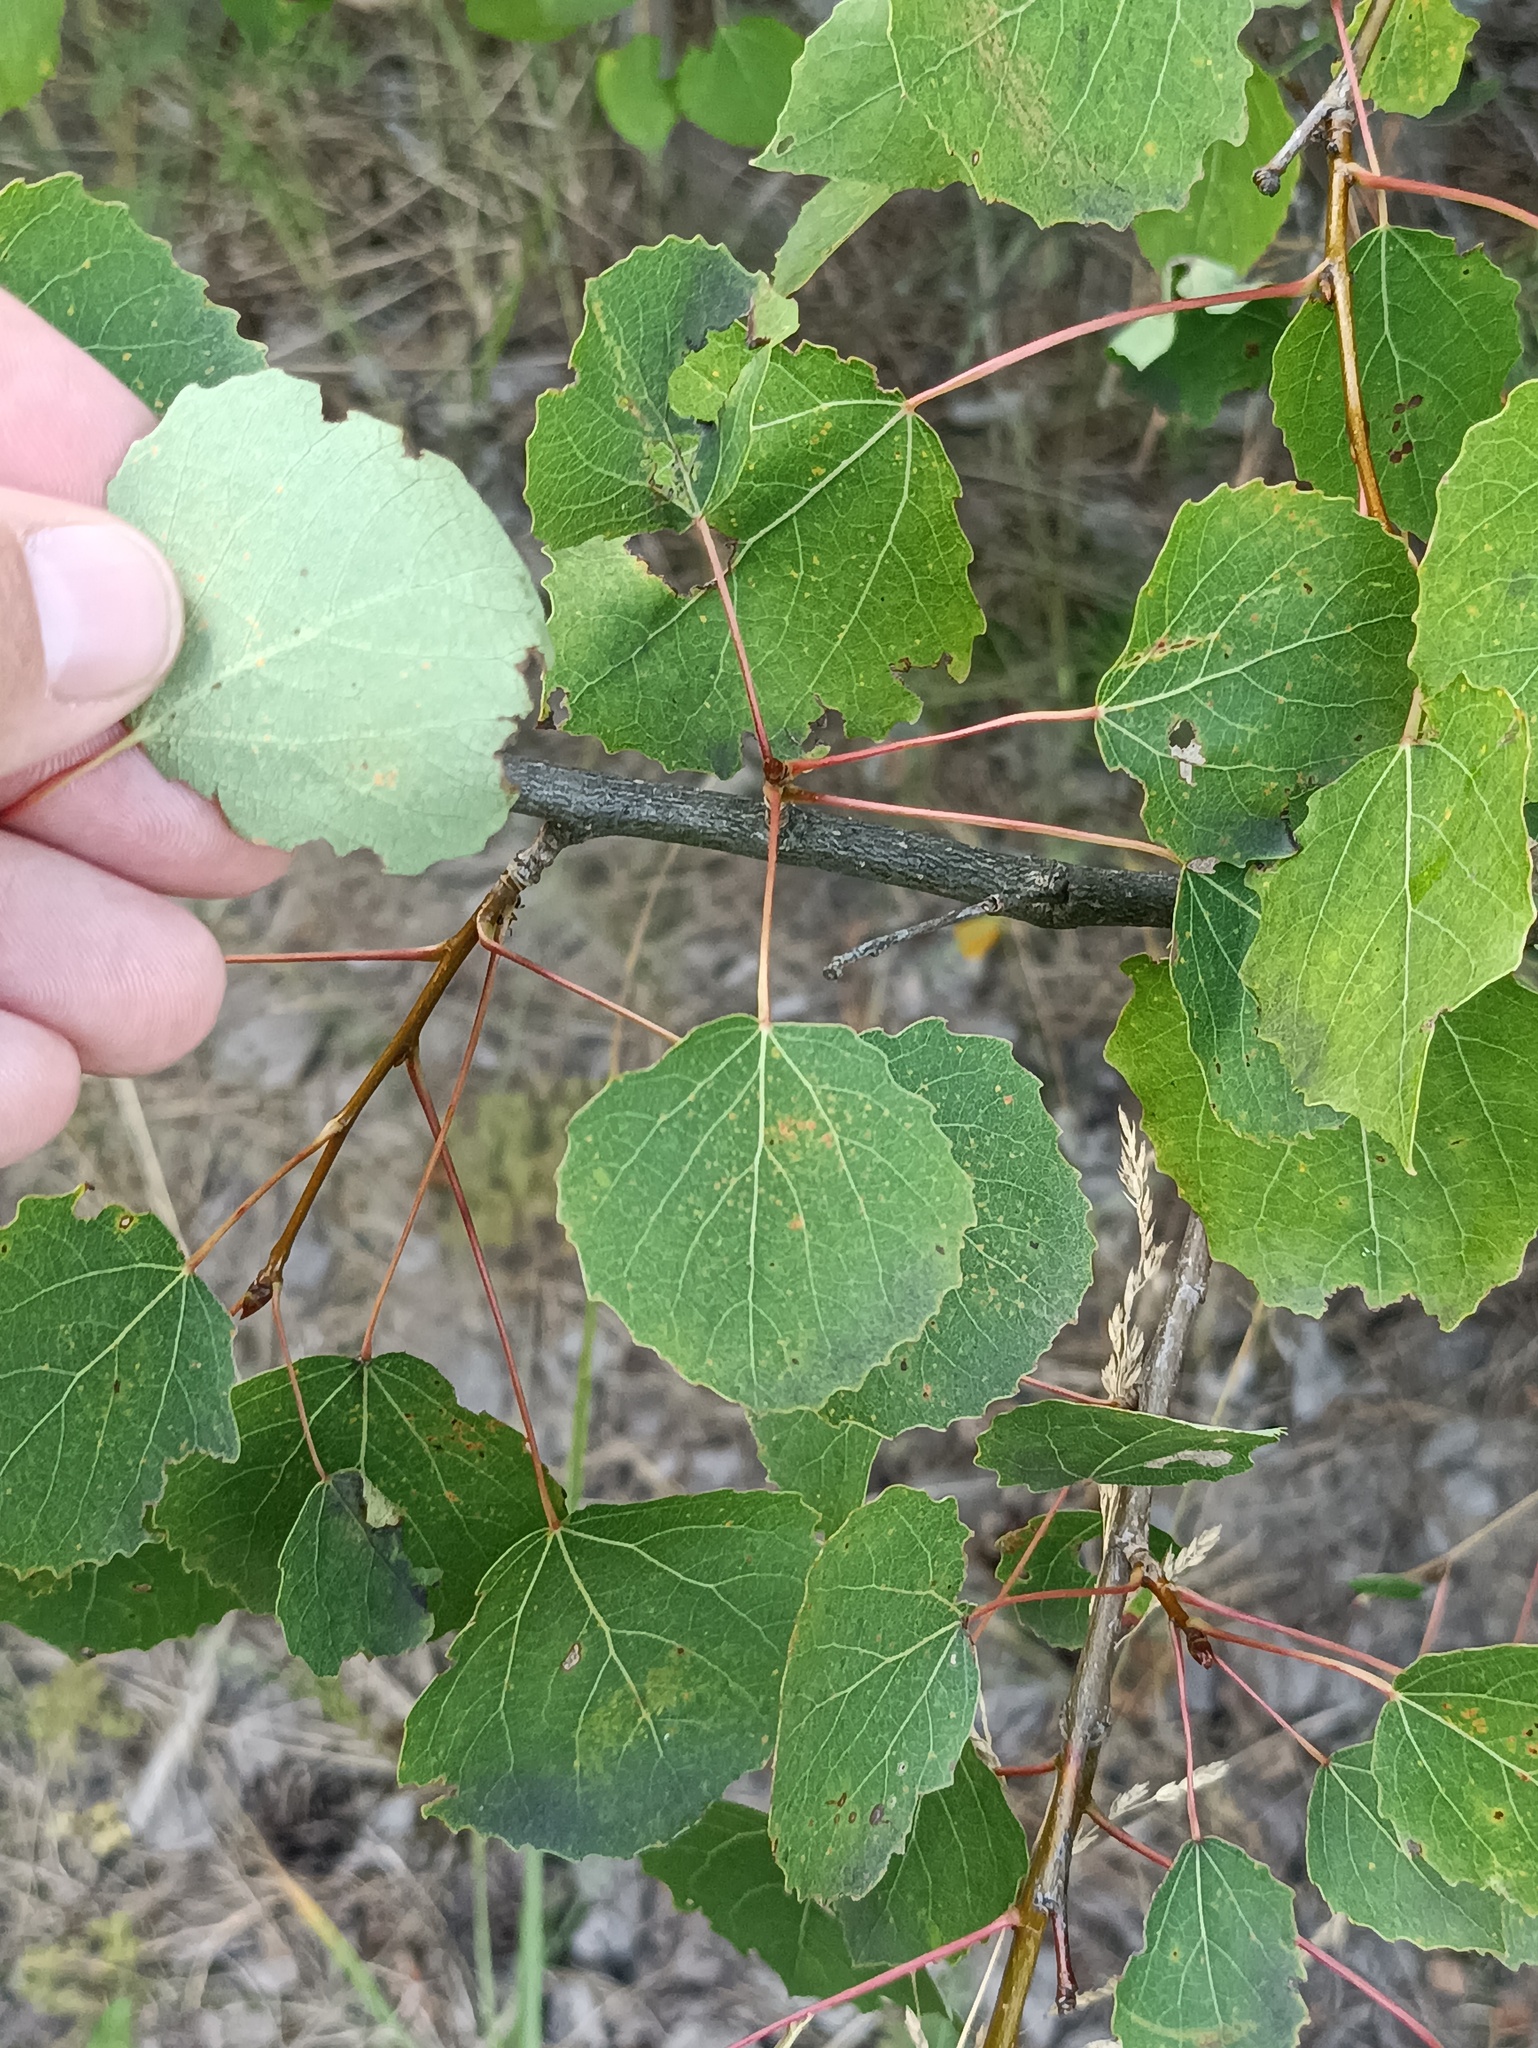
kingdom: Plantae
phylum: Tracheophyta
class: Magnoliopsida
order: Malpighiales
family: Salicaceae
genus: Populus
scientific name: Populus tremula
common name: European aspen
